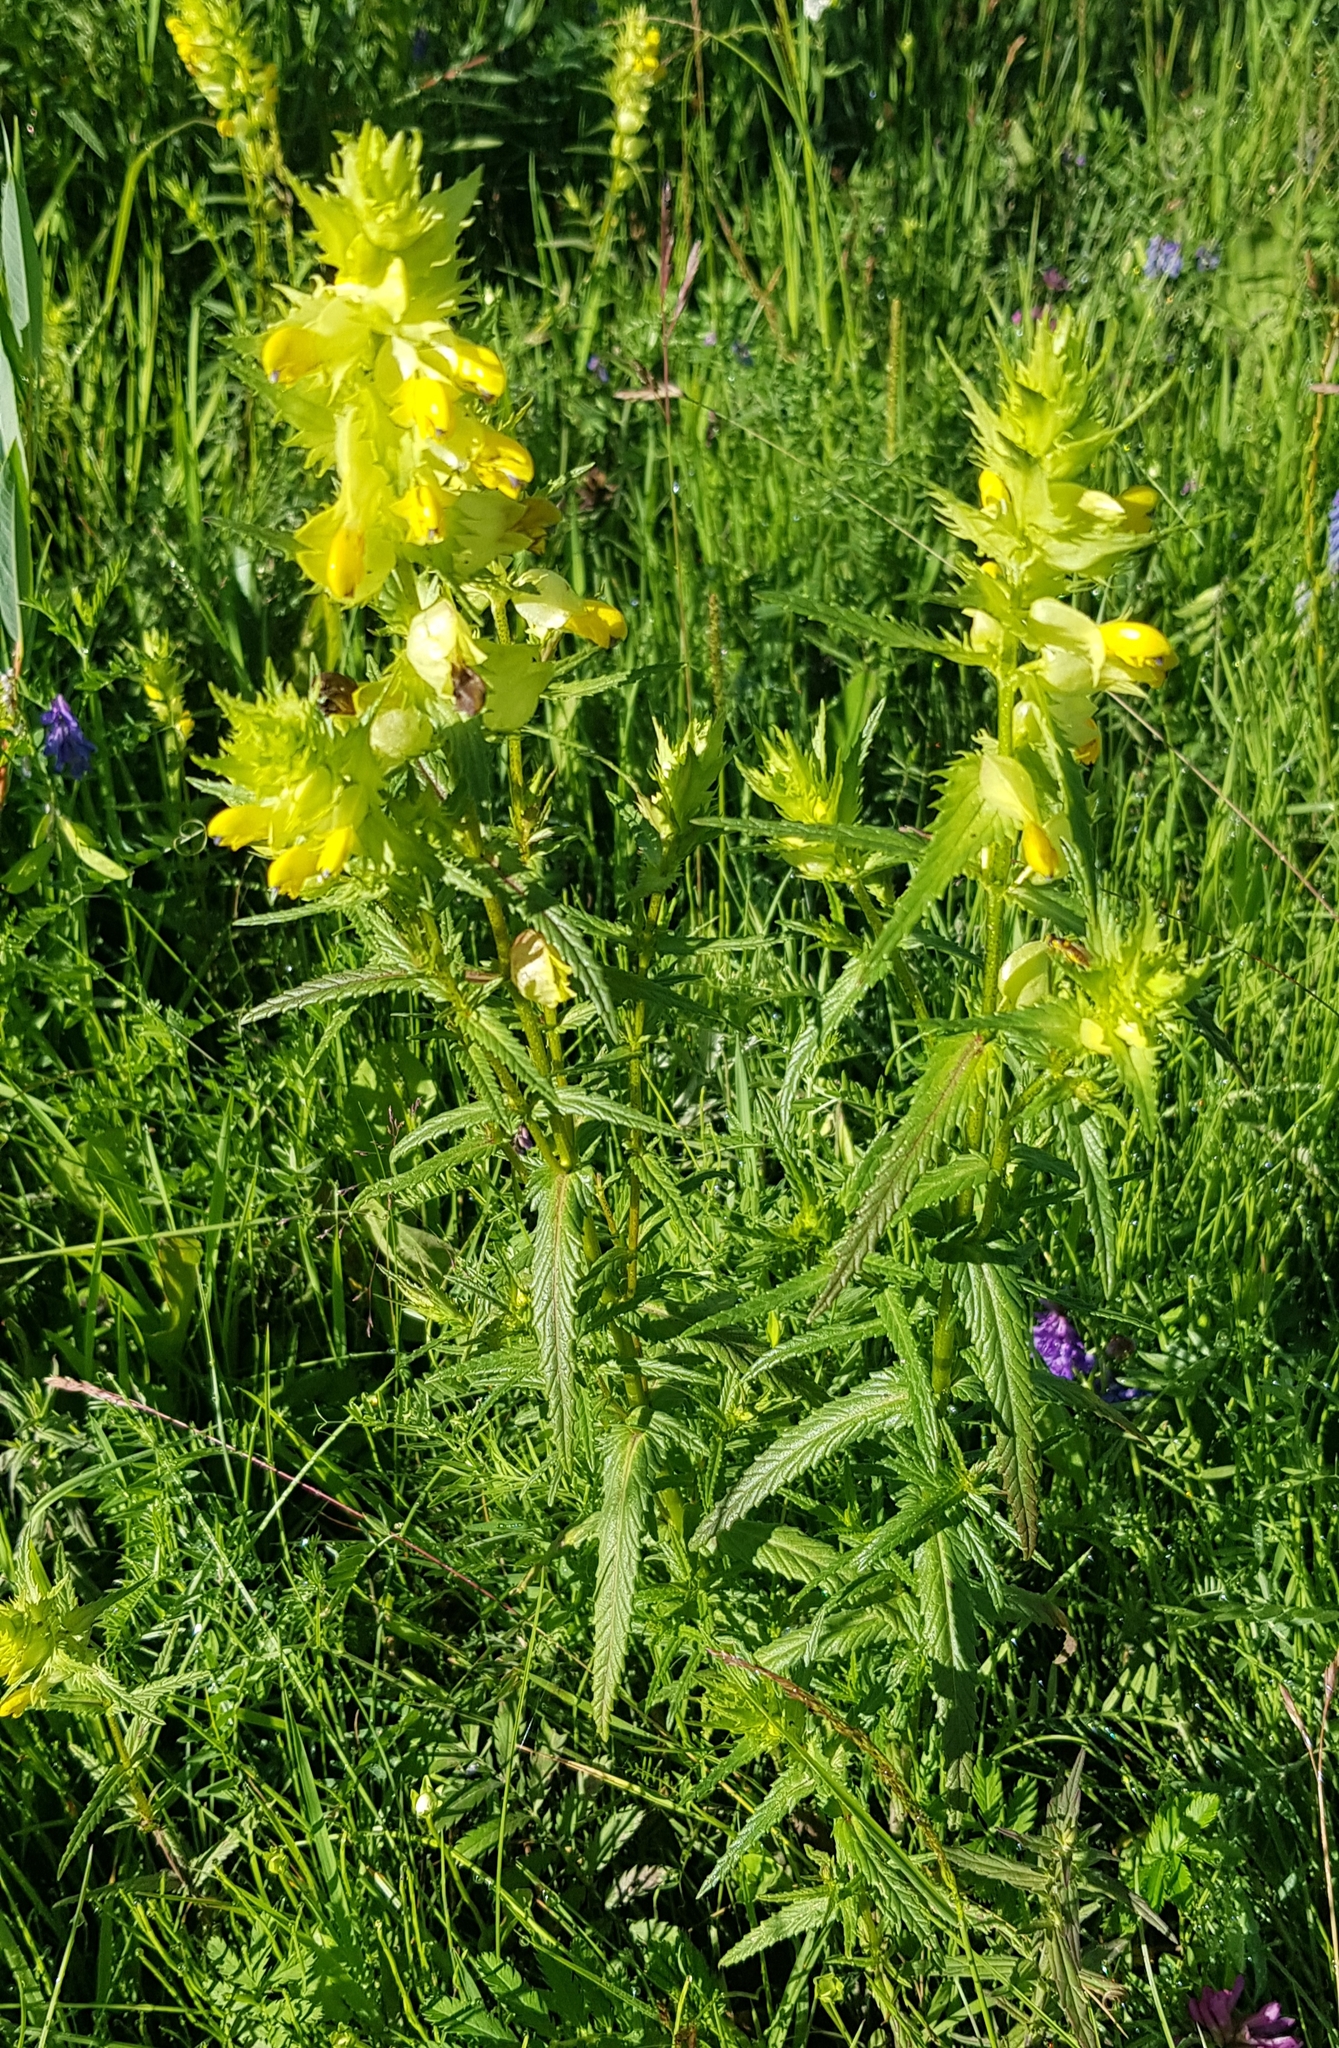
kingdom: Plantae
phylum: Tracheophyta
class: Magnoliopsida
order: Lamiales
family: Orobanchaceae
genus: Rhinanthus
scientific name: Rhinanthus serotinus
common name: Late-flowering yellow rattle
